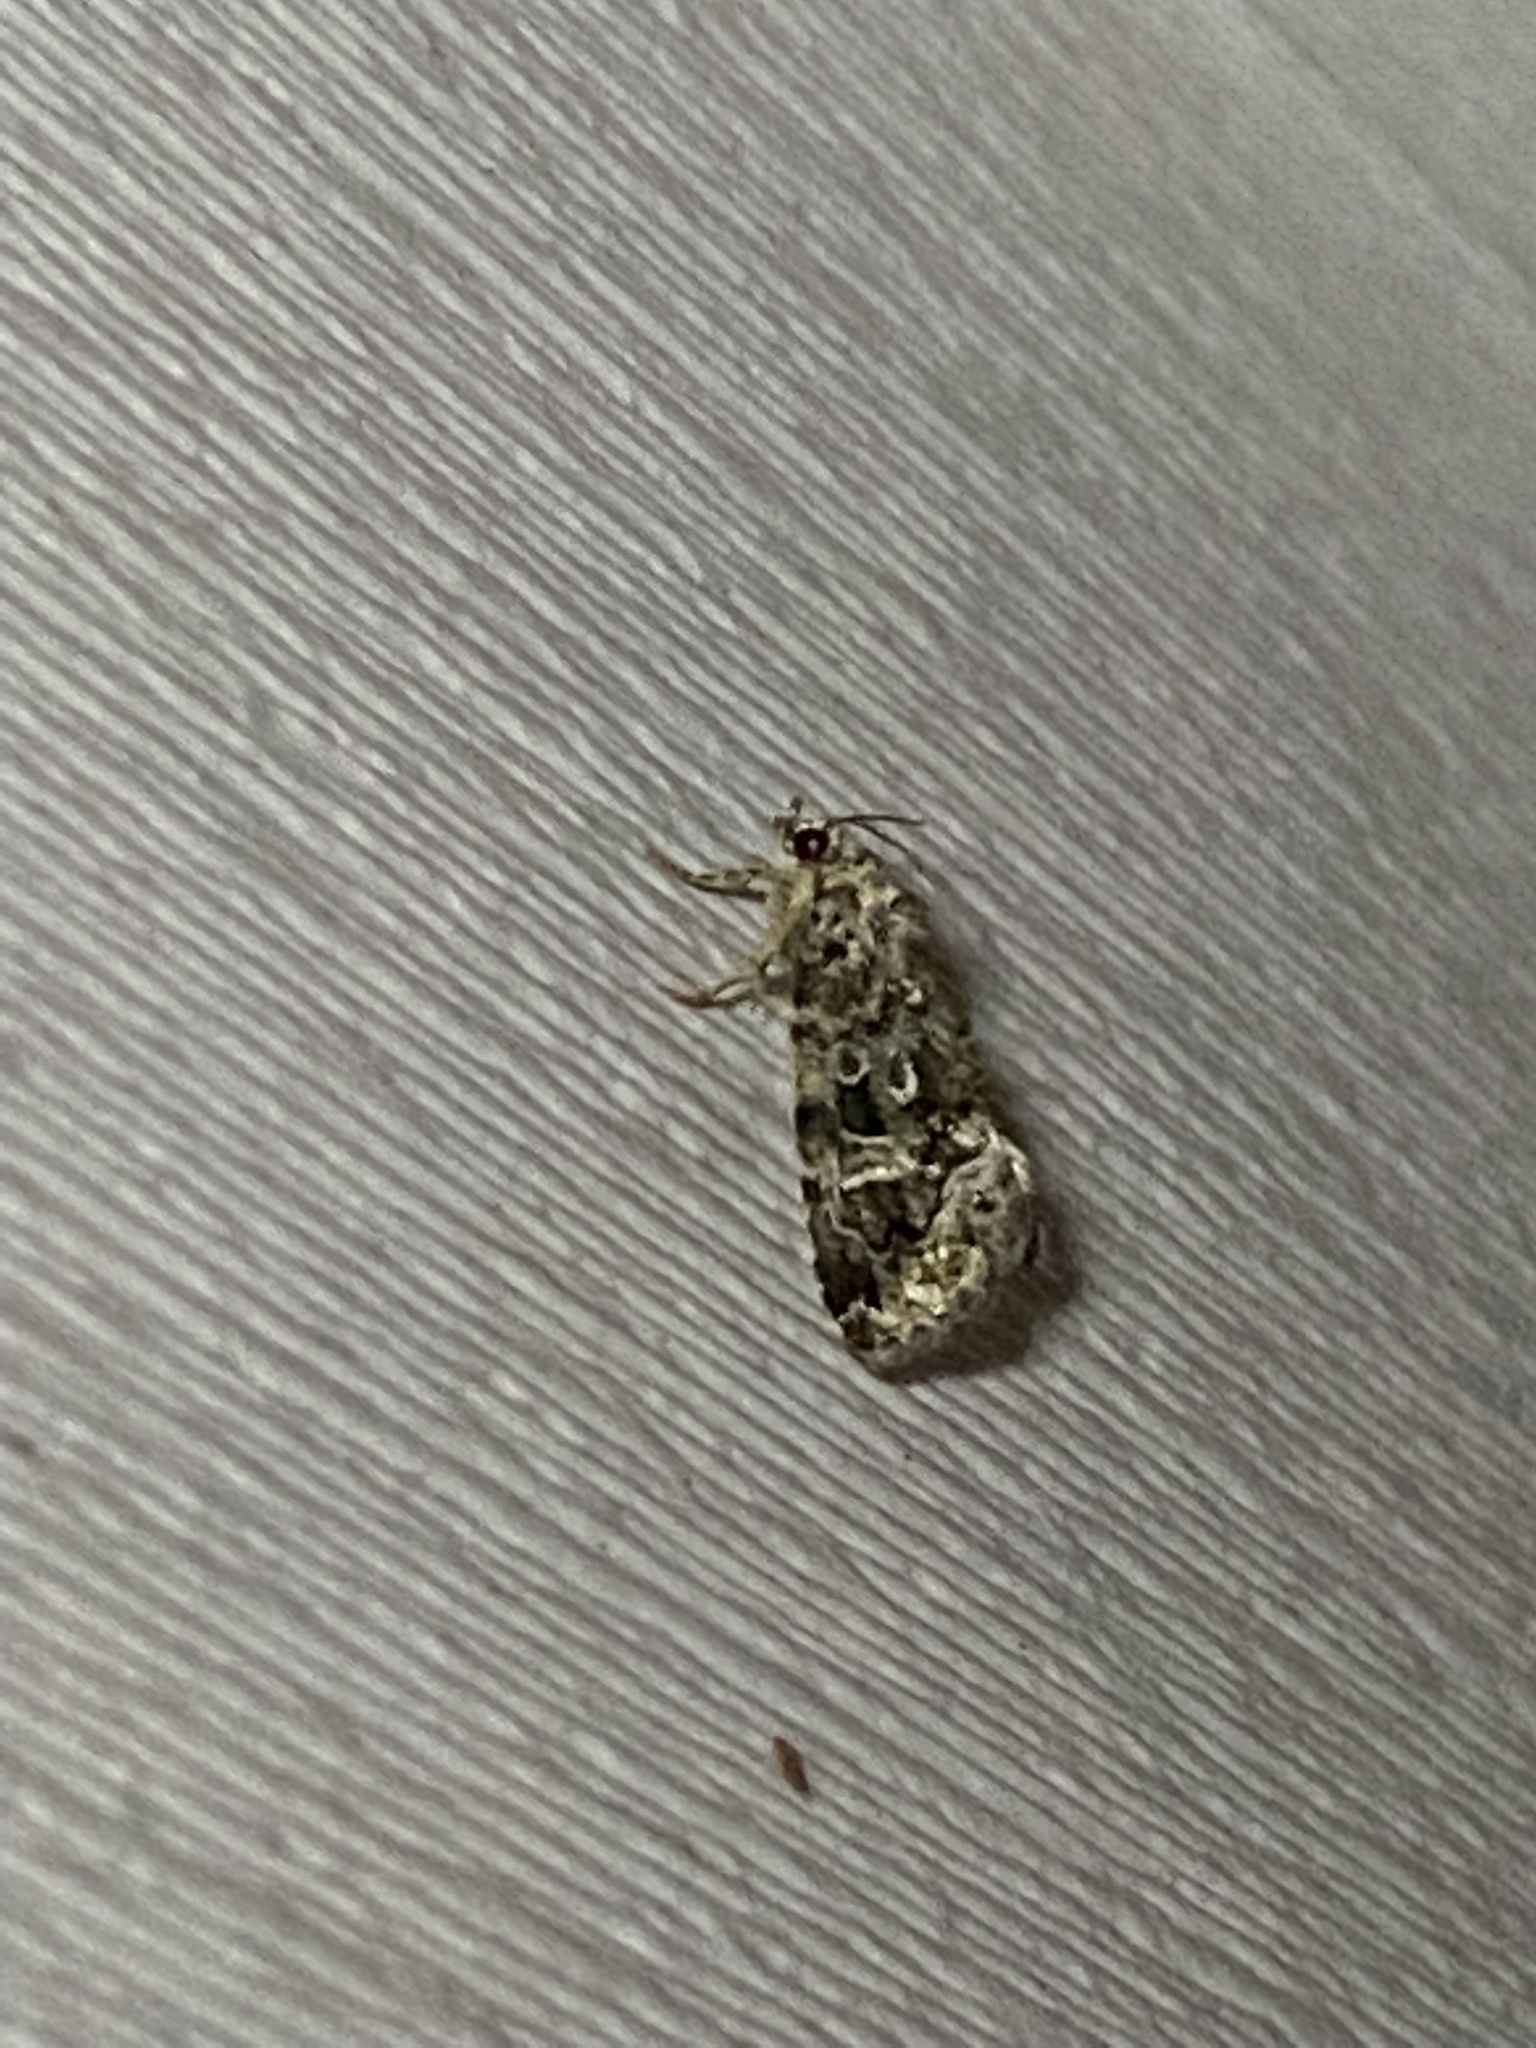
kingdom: Animalia
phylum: Arthropoda
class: Insecta
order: Lepidoptera
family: Noctuidae
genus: Protodeltote
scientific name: Protodeltote muscosula
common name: Large mossy glyph
